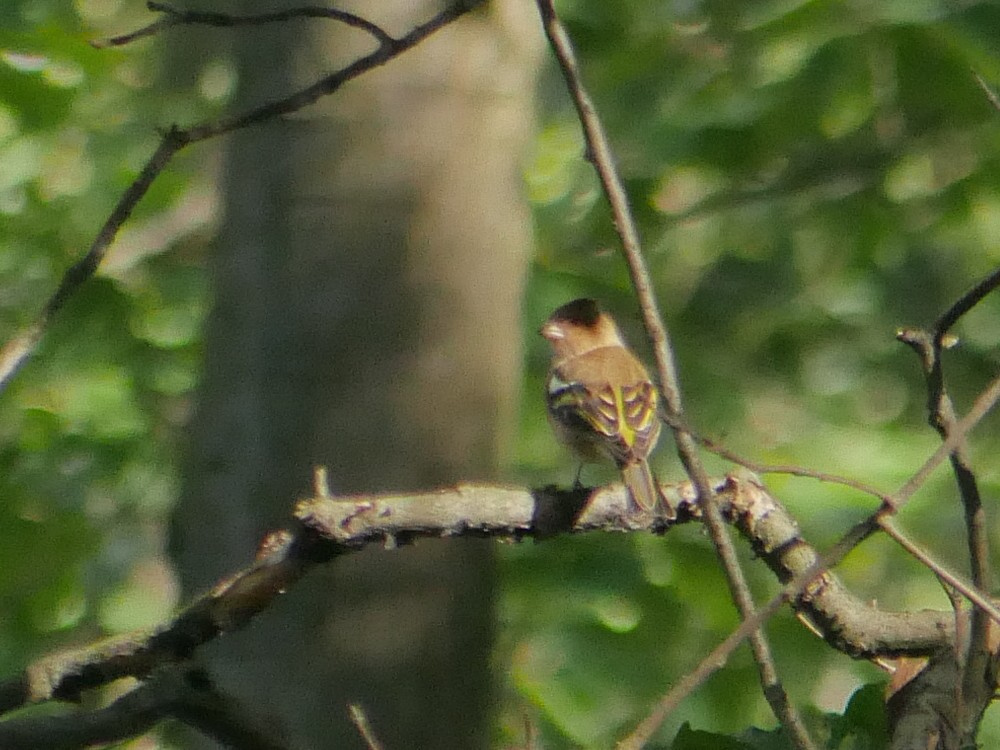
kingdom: Animalia
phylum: Chordata
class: Aves
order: Passeriformes
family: Fringillidae
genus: Fringilla
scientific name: Fringilla coelebs
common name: Common chaffinch
